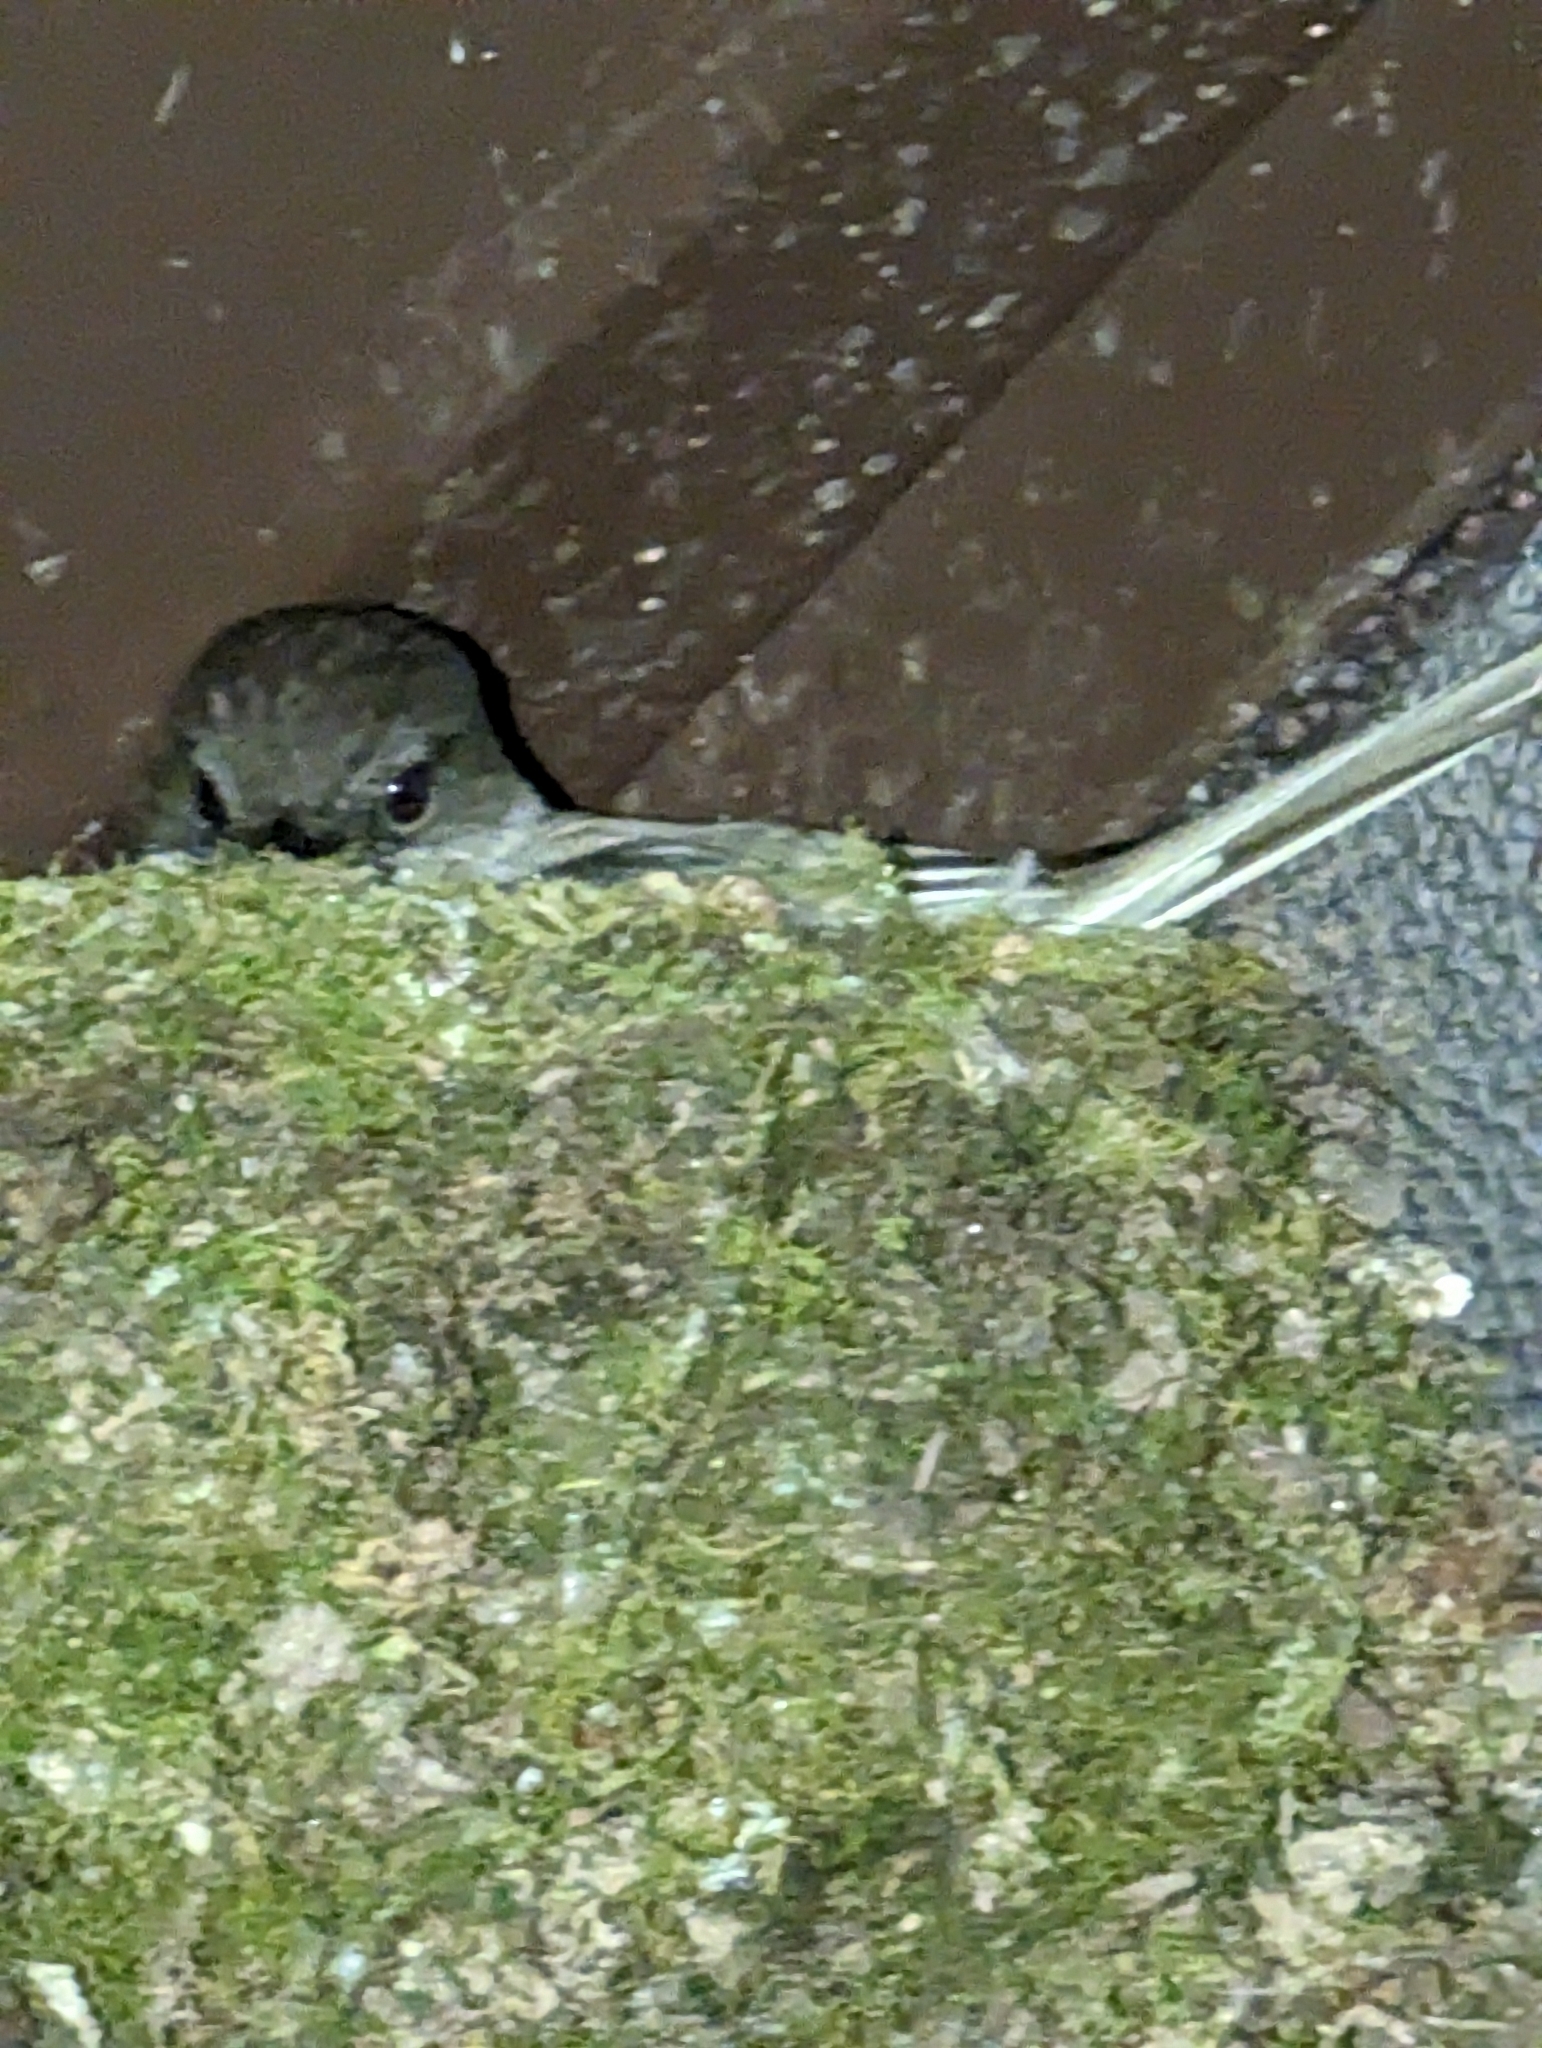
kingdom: Animalia
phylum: Chordata
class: Aves
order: Passeriformes
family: Tyrannidae
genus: Sayornis
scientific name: Sayornis phoebe
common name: Eastern phoebe
